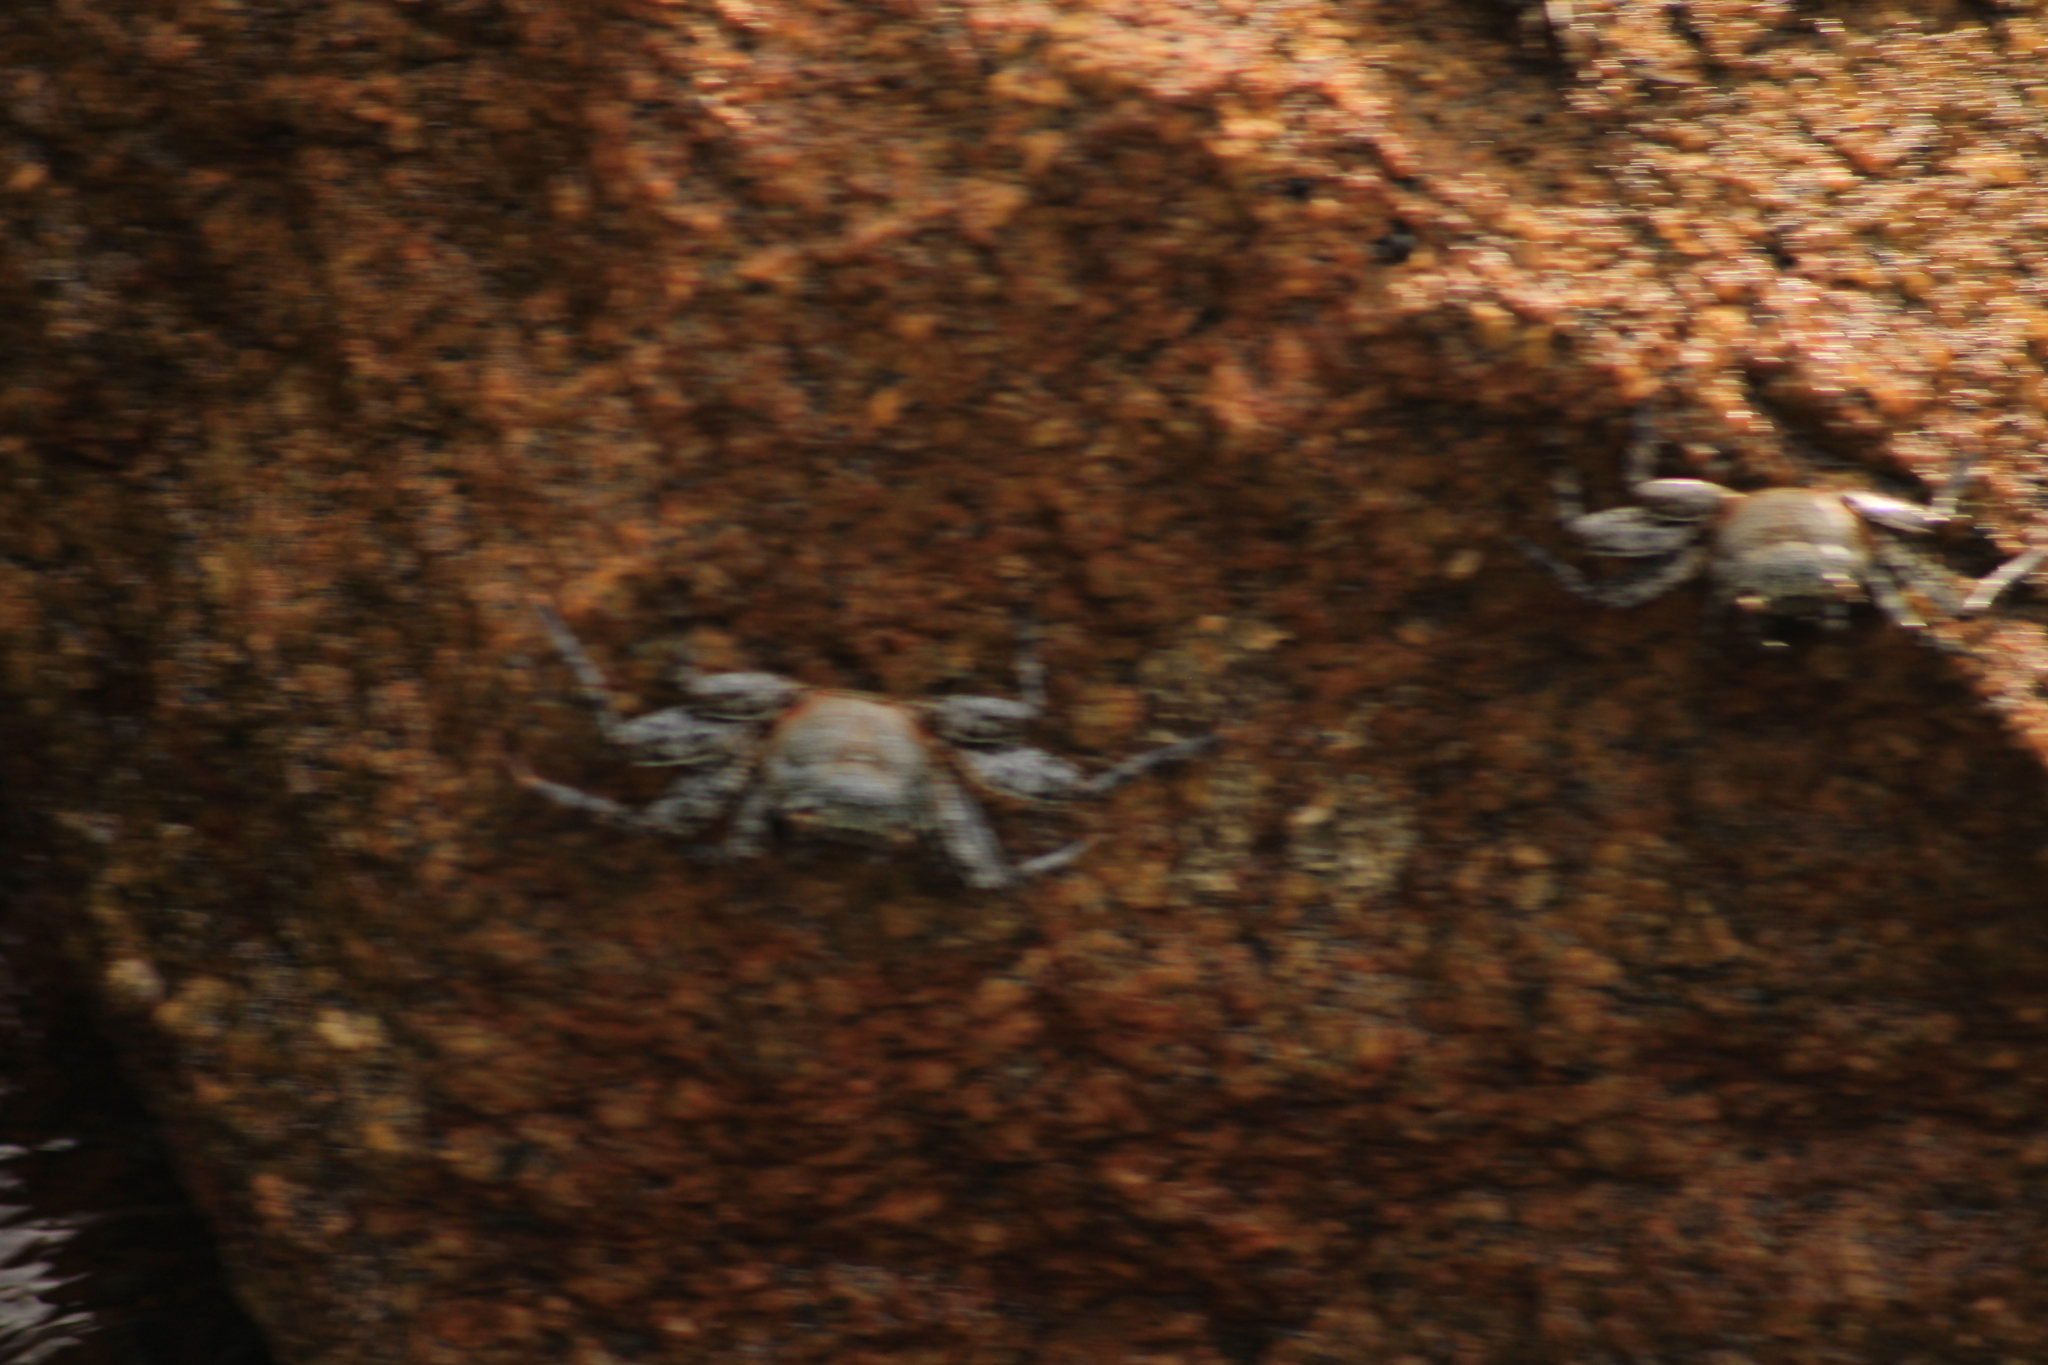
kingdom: Animalia
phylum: Arthropoda
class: Malacostraca
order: Decapoda
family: Grapsidae
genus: Grapsus
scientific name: Grapsus grapsus
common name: Sally lightfoot
